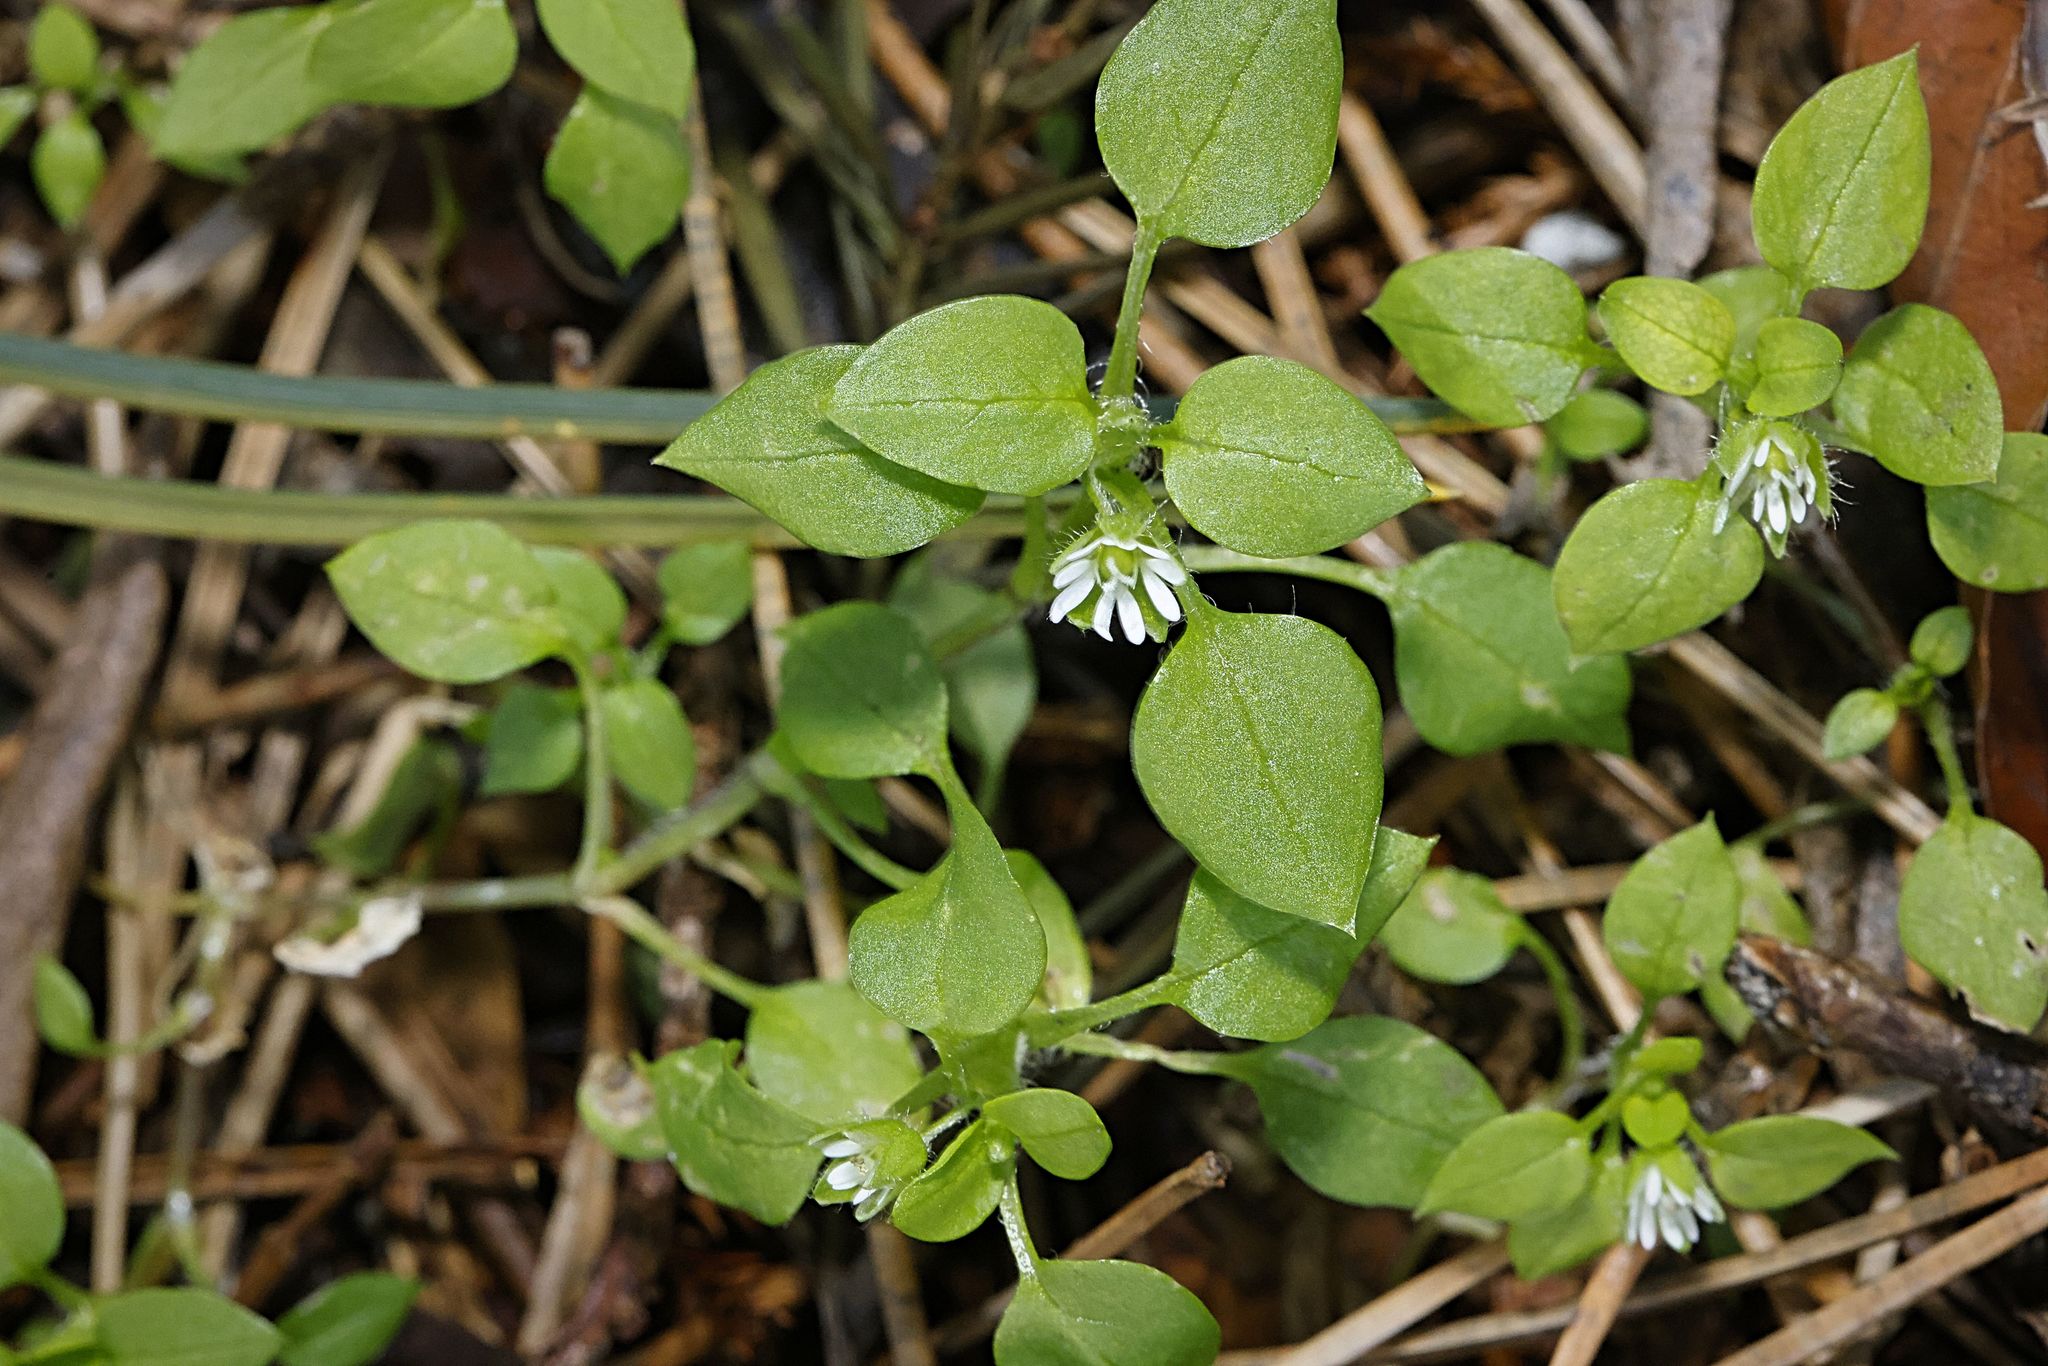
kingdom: Plantae
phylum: Tracheophyta
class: Magnoliopsida
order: Caryophyllales
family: Caryophyllaceae
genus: Stellaria
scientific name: Stellaria media
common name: Common chickweed
